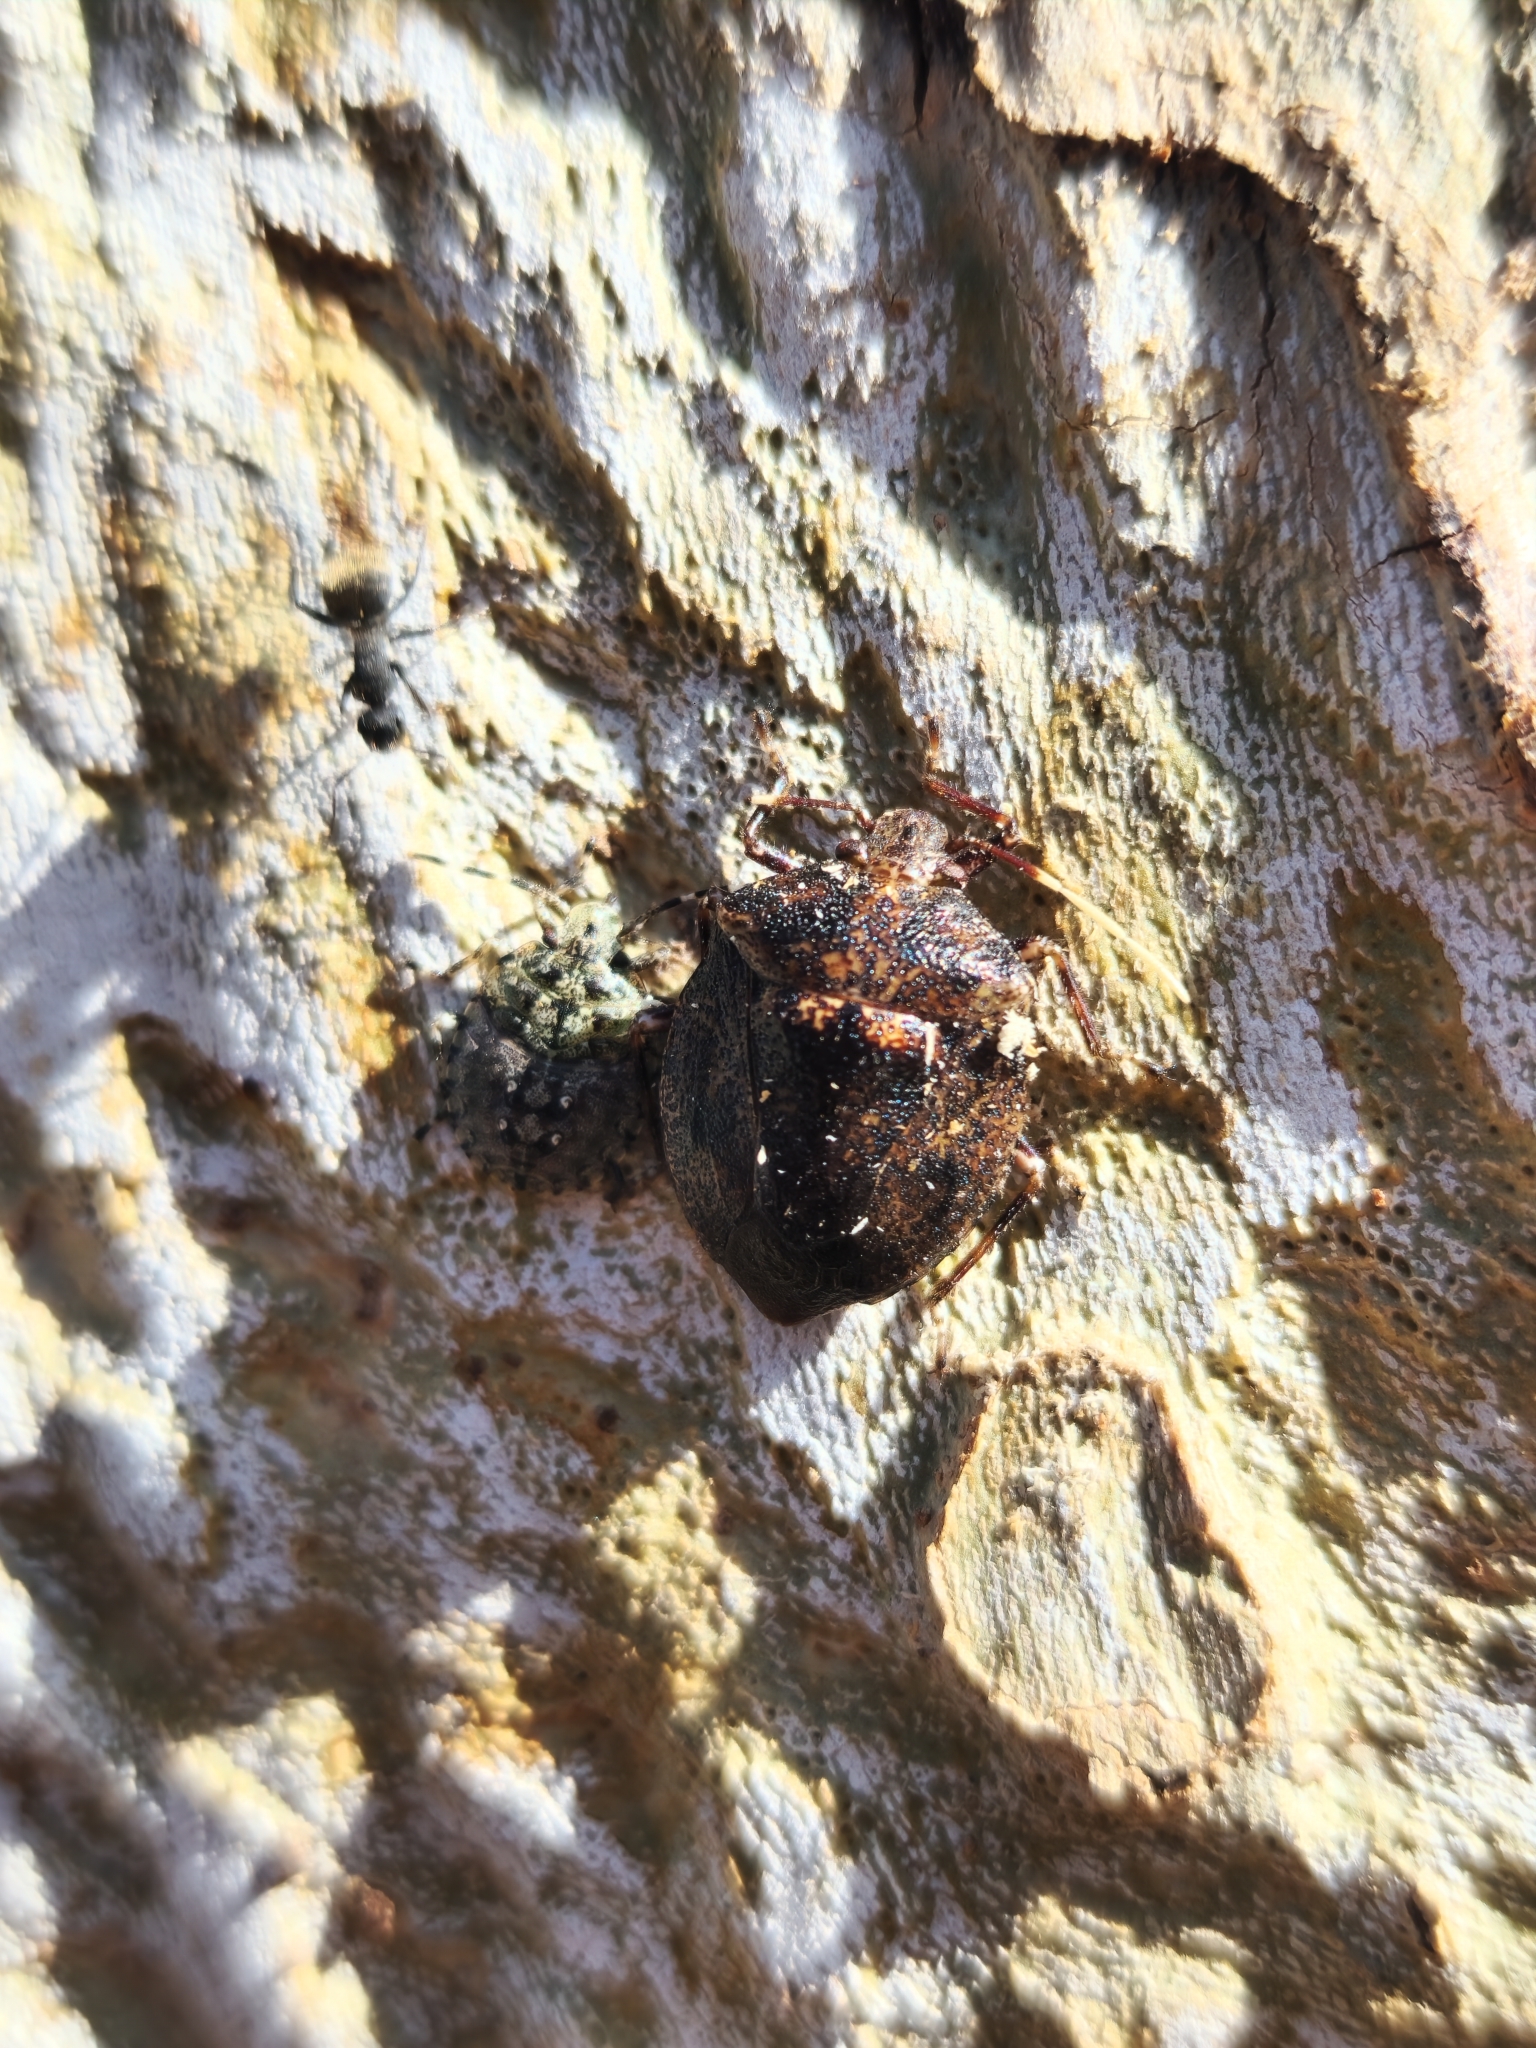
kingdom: Animalia
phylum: Arthropoda
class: Insecta
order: Hemiptera
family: Pentatomidae
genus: Antiteuchus
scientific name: Antiteuchus mixtus
